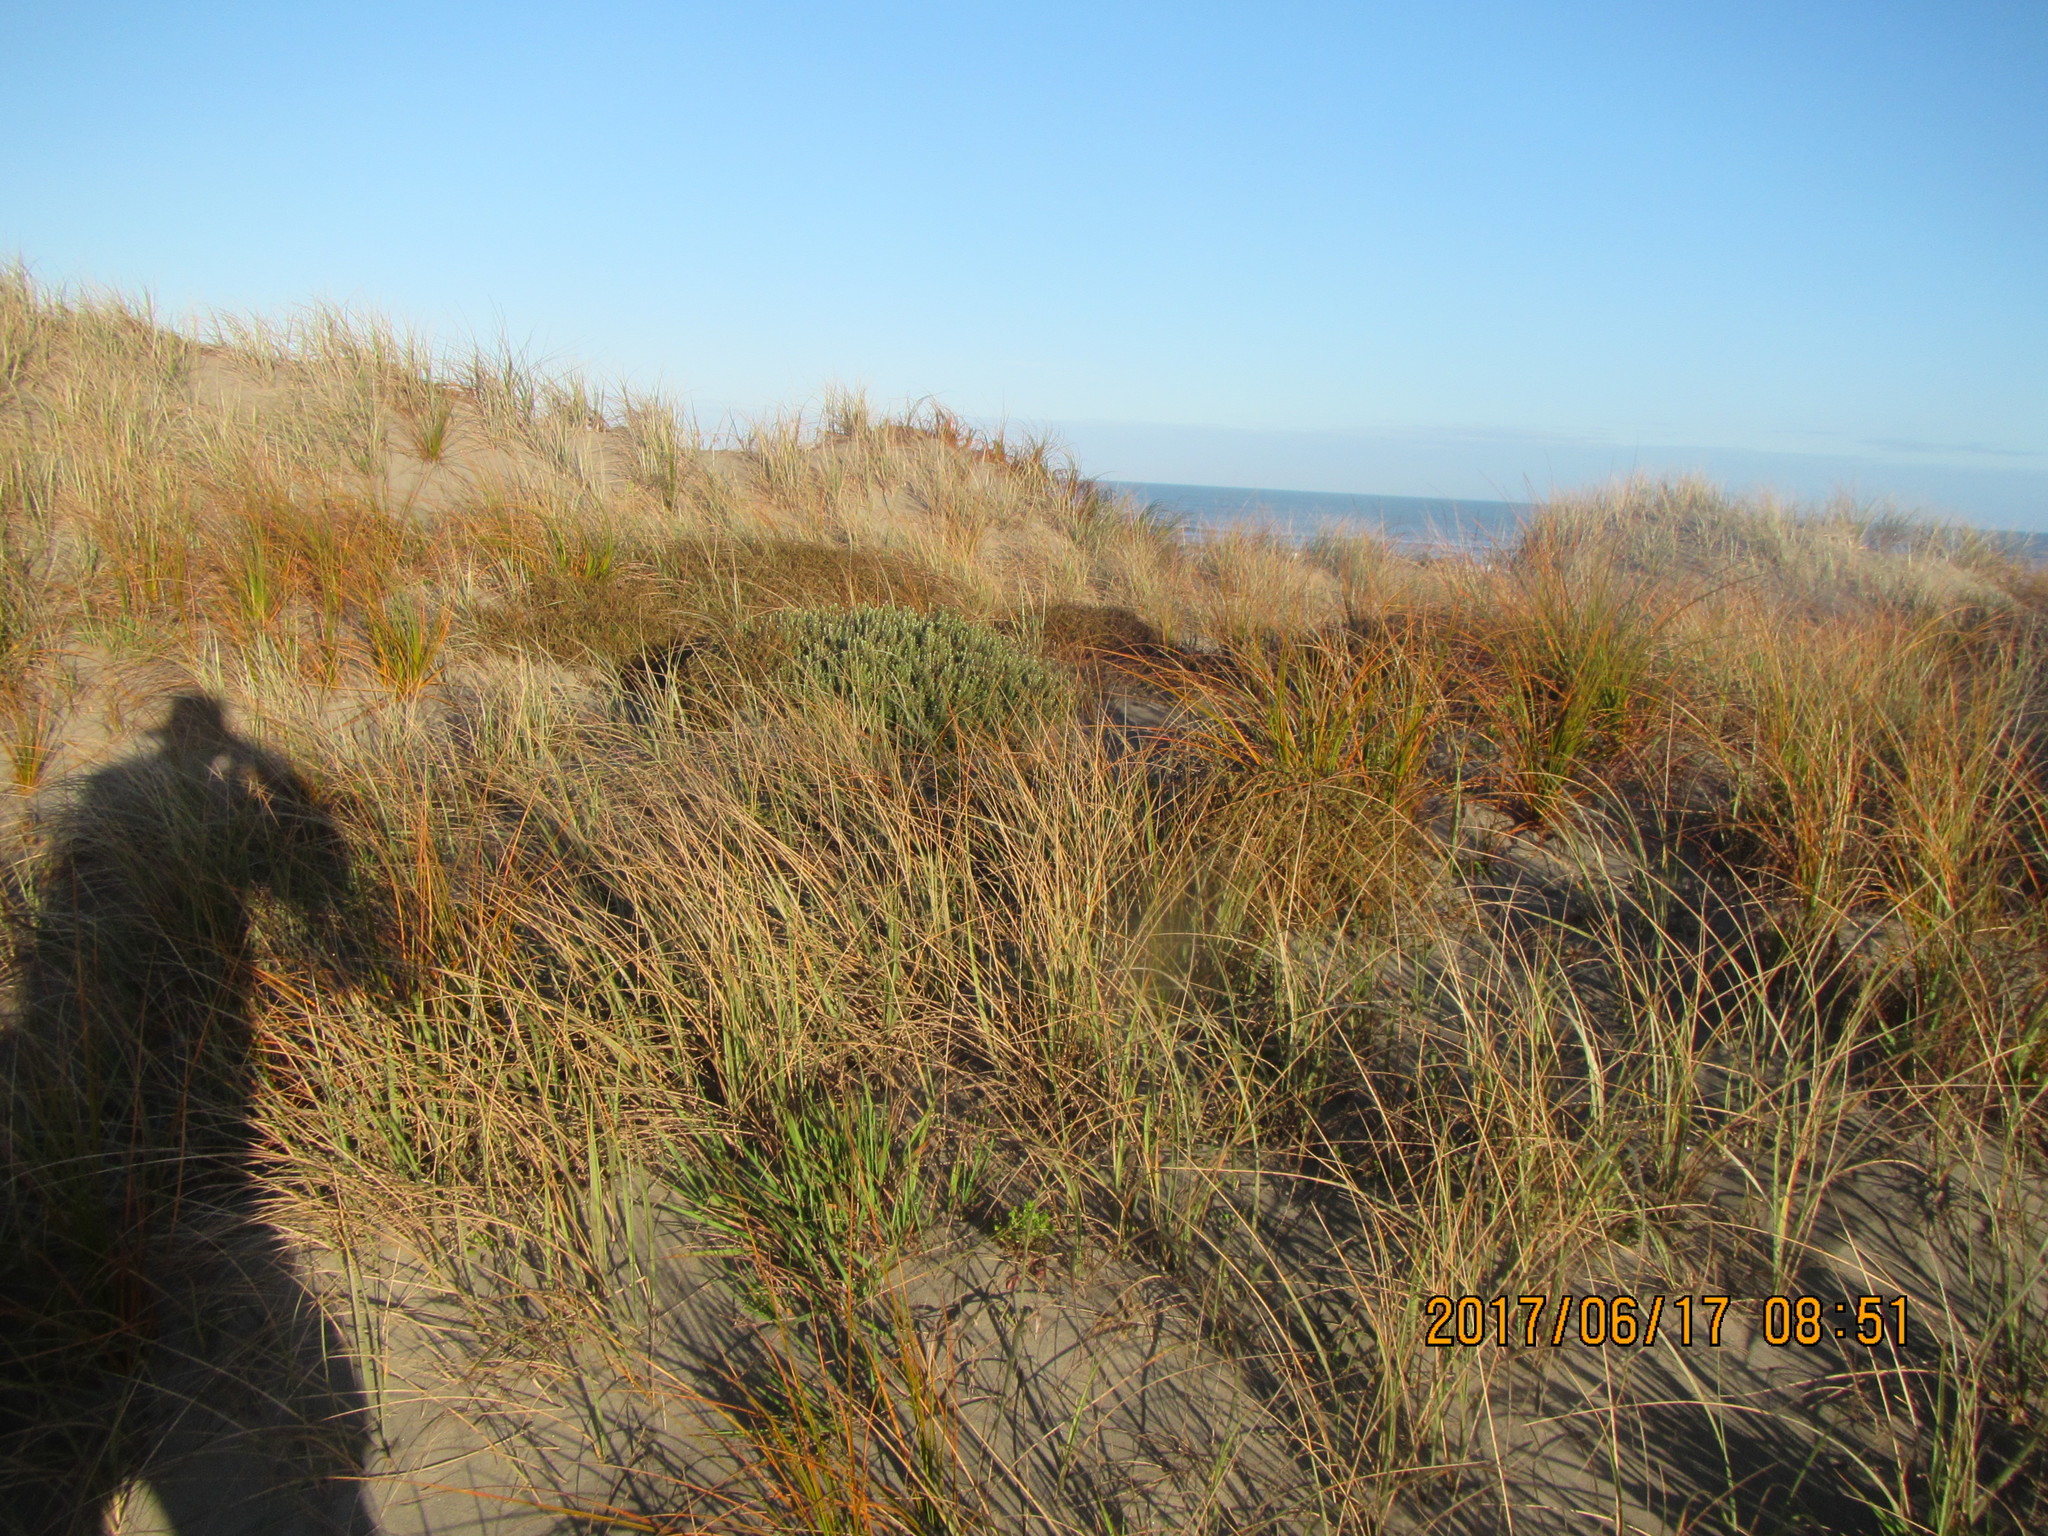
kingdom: Plantae
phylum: Tracheophyta
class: Magnoliopsida
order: Malvales
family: Thymelaeaceae
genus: Pimelea
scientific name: Pimelea villosa
